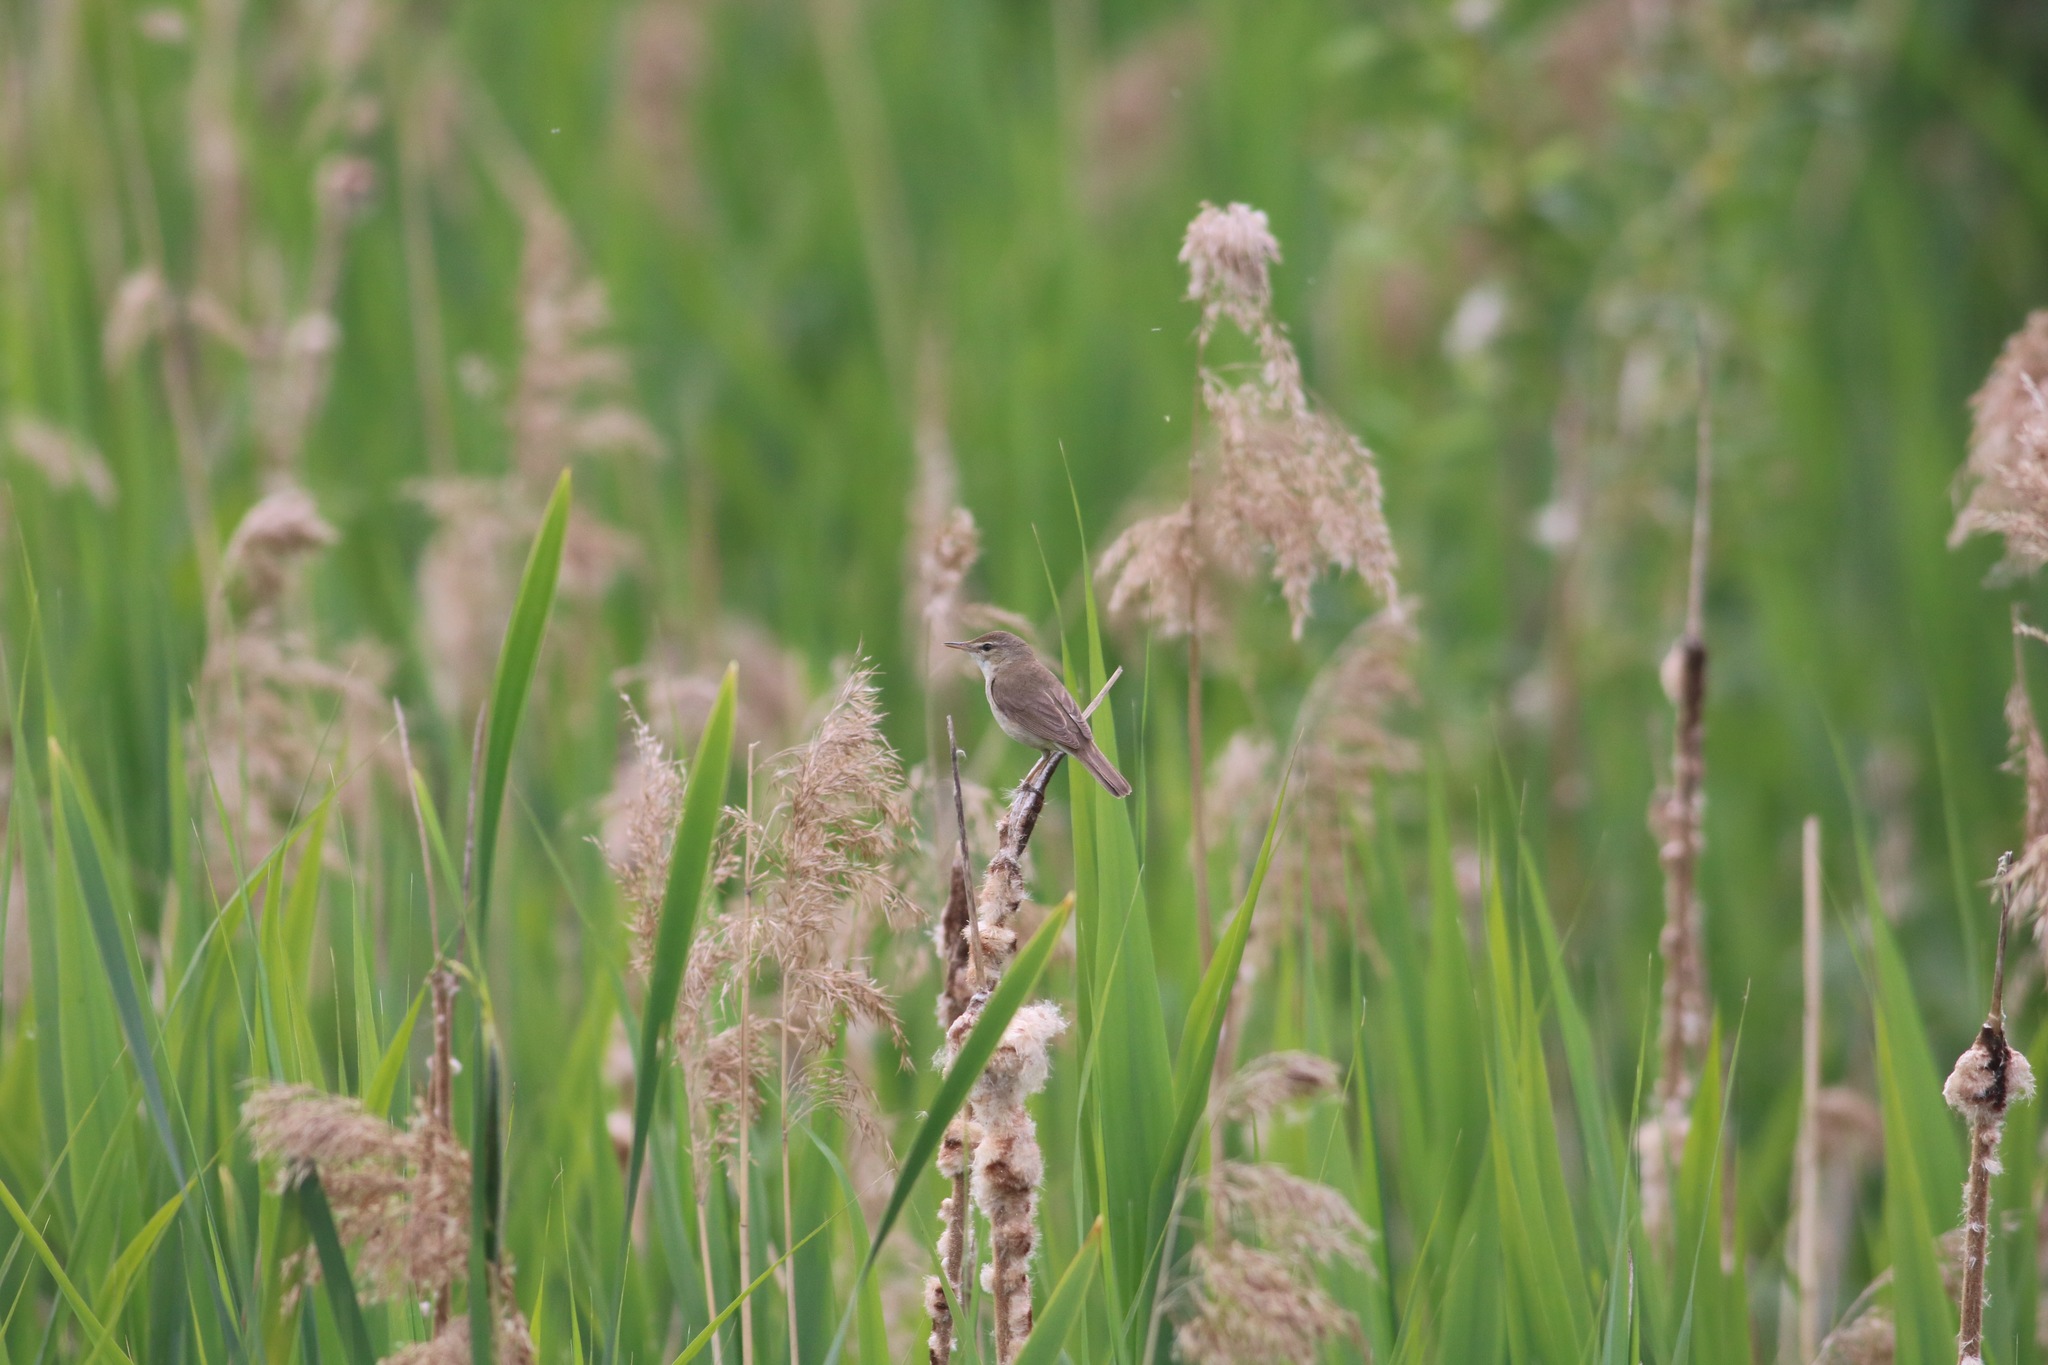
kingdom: Animalia
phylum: Chordata
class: Aves
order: Passeriformes
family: Acrocephalidae
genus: Acrocephalus
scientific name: Acrocephalus palustris
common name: Marsh warbler
